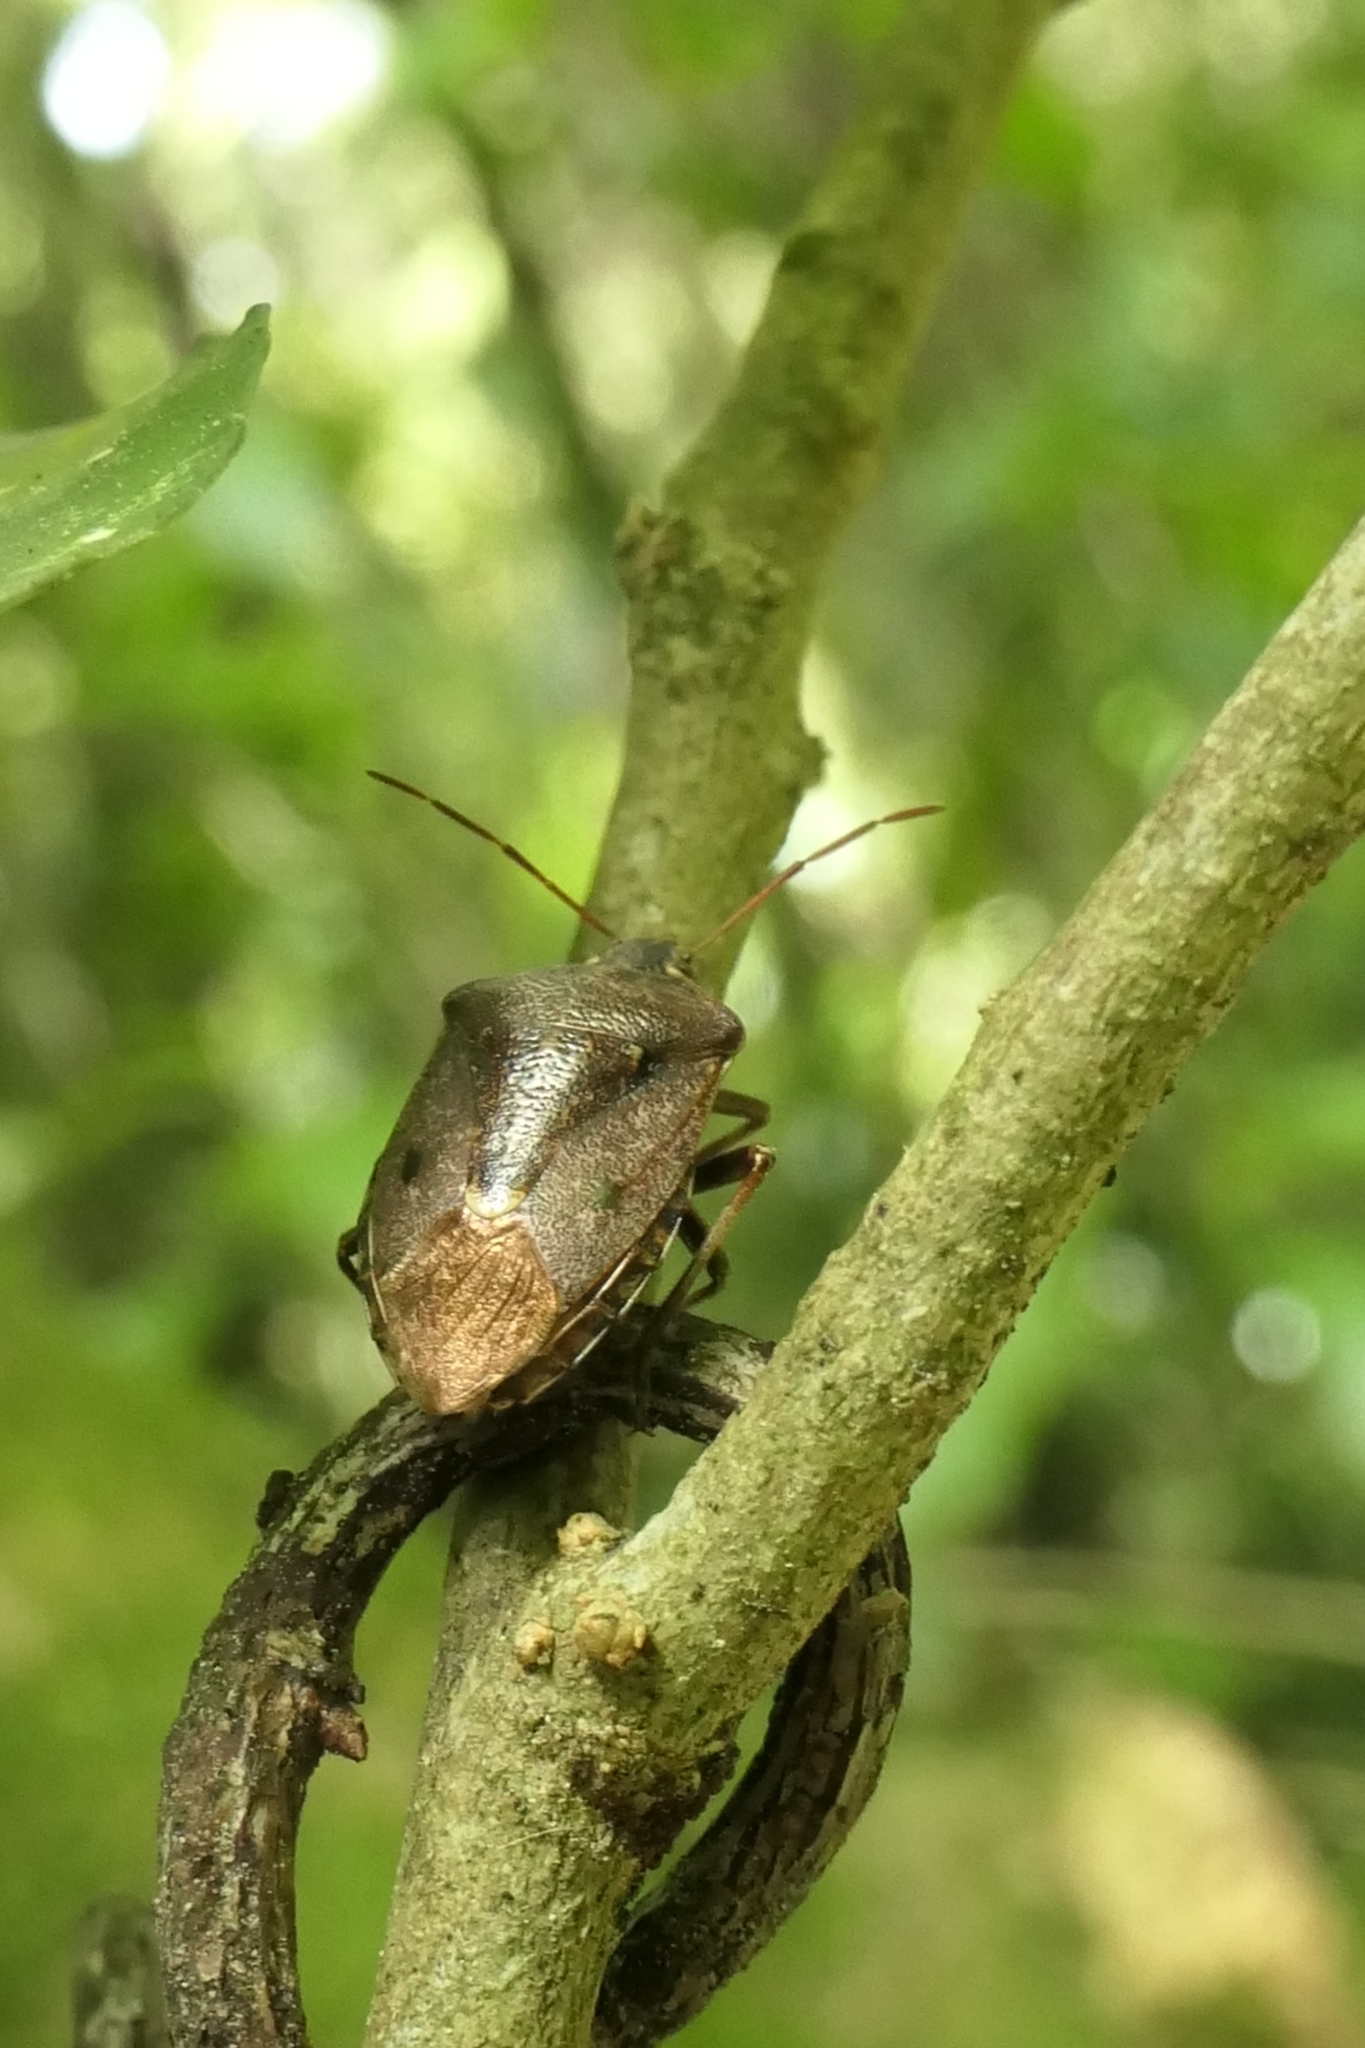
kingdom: Animalia
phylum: Arthropoda
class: Insecta
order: Hemiptera
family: Pentatomidae
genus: Cermatulus
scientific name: Cermatulus nasalis
